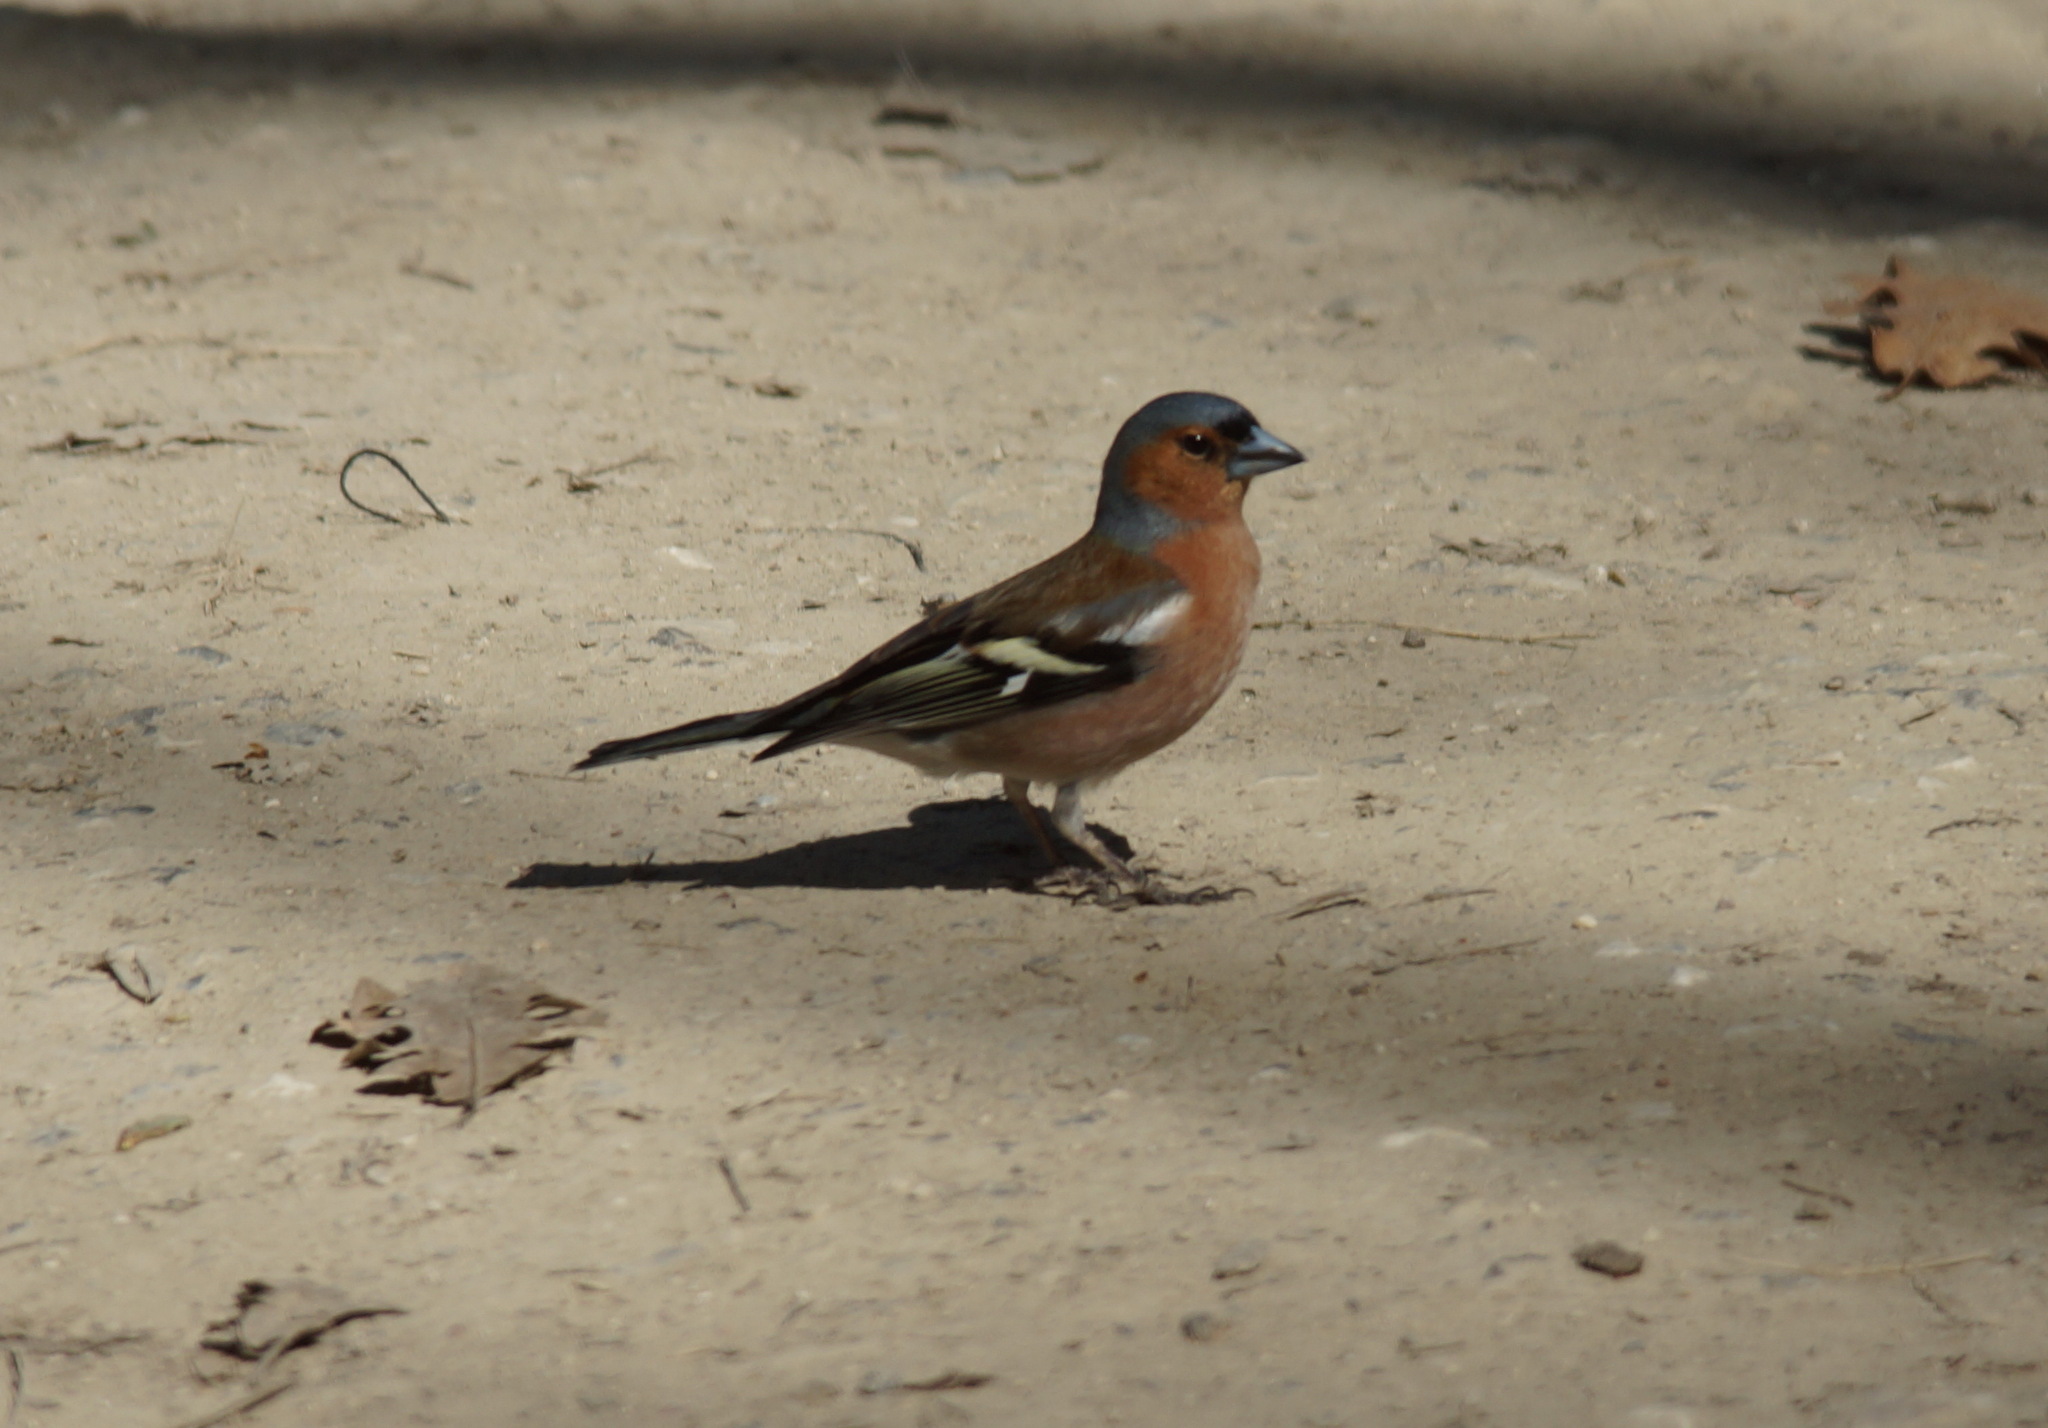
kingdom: Animalia
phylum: Chordata
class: Aves
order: Passeriformes
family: Fringillidae
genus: Fringilla
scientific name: Fringilla coelebs
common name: Common chaffinch
